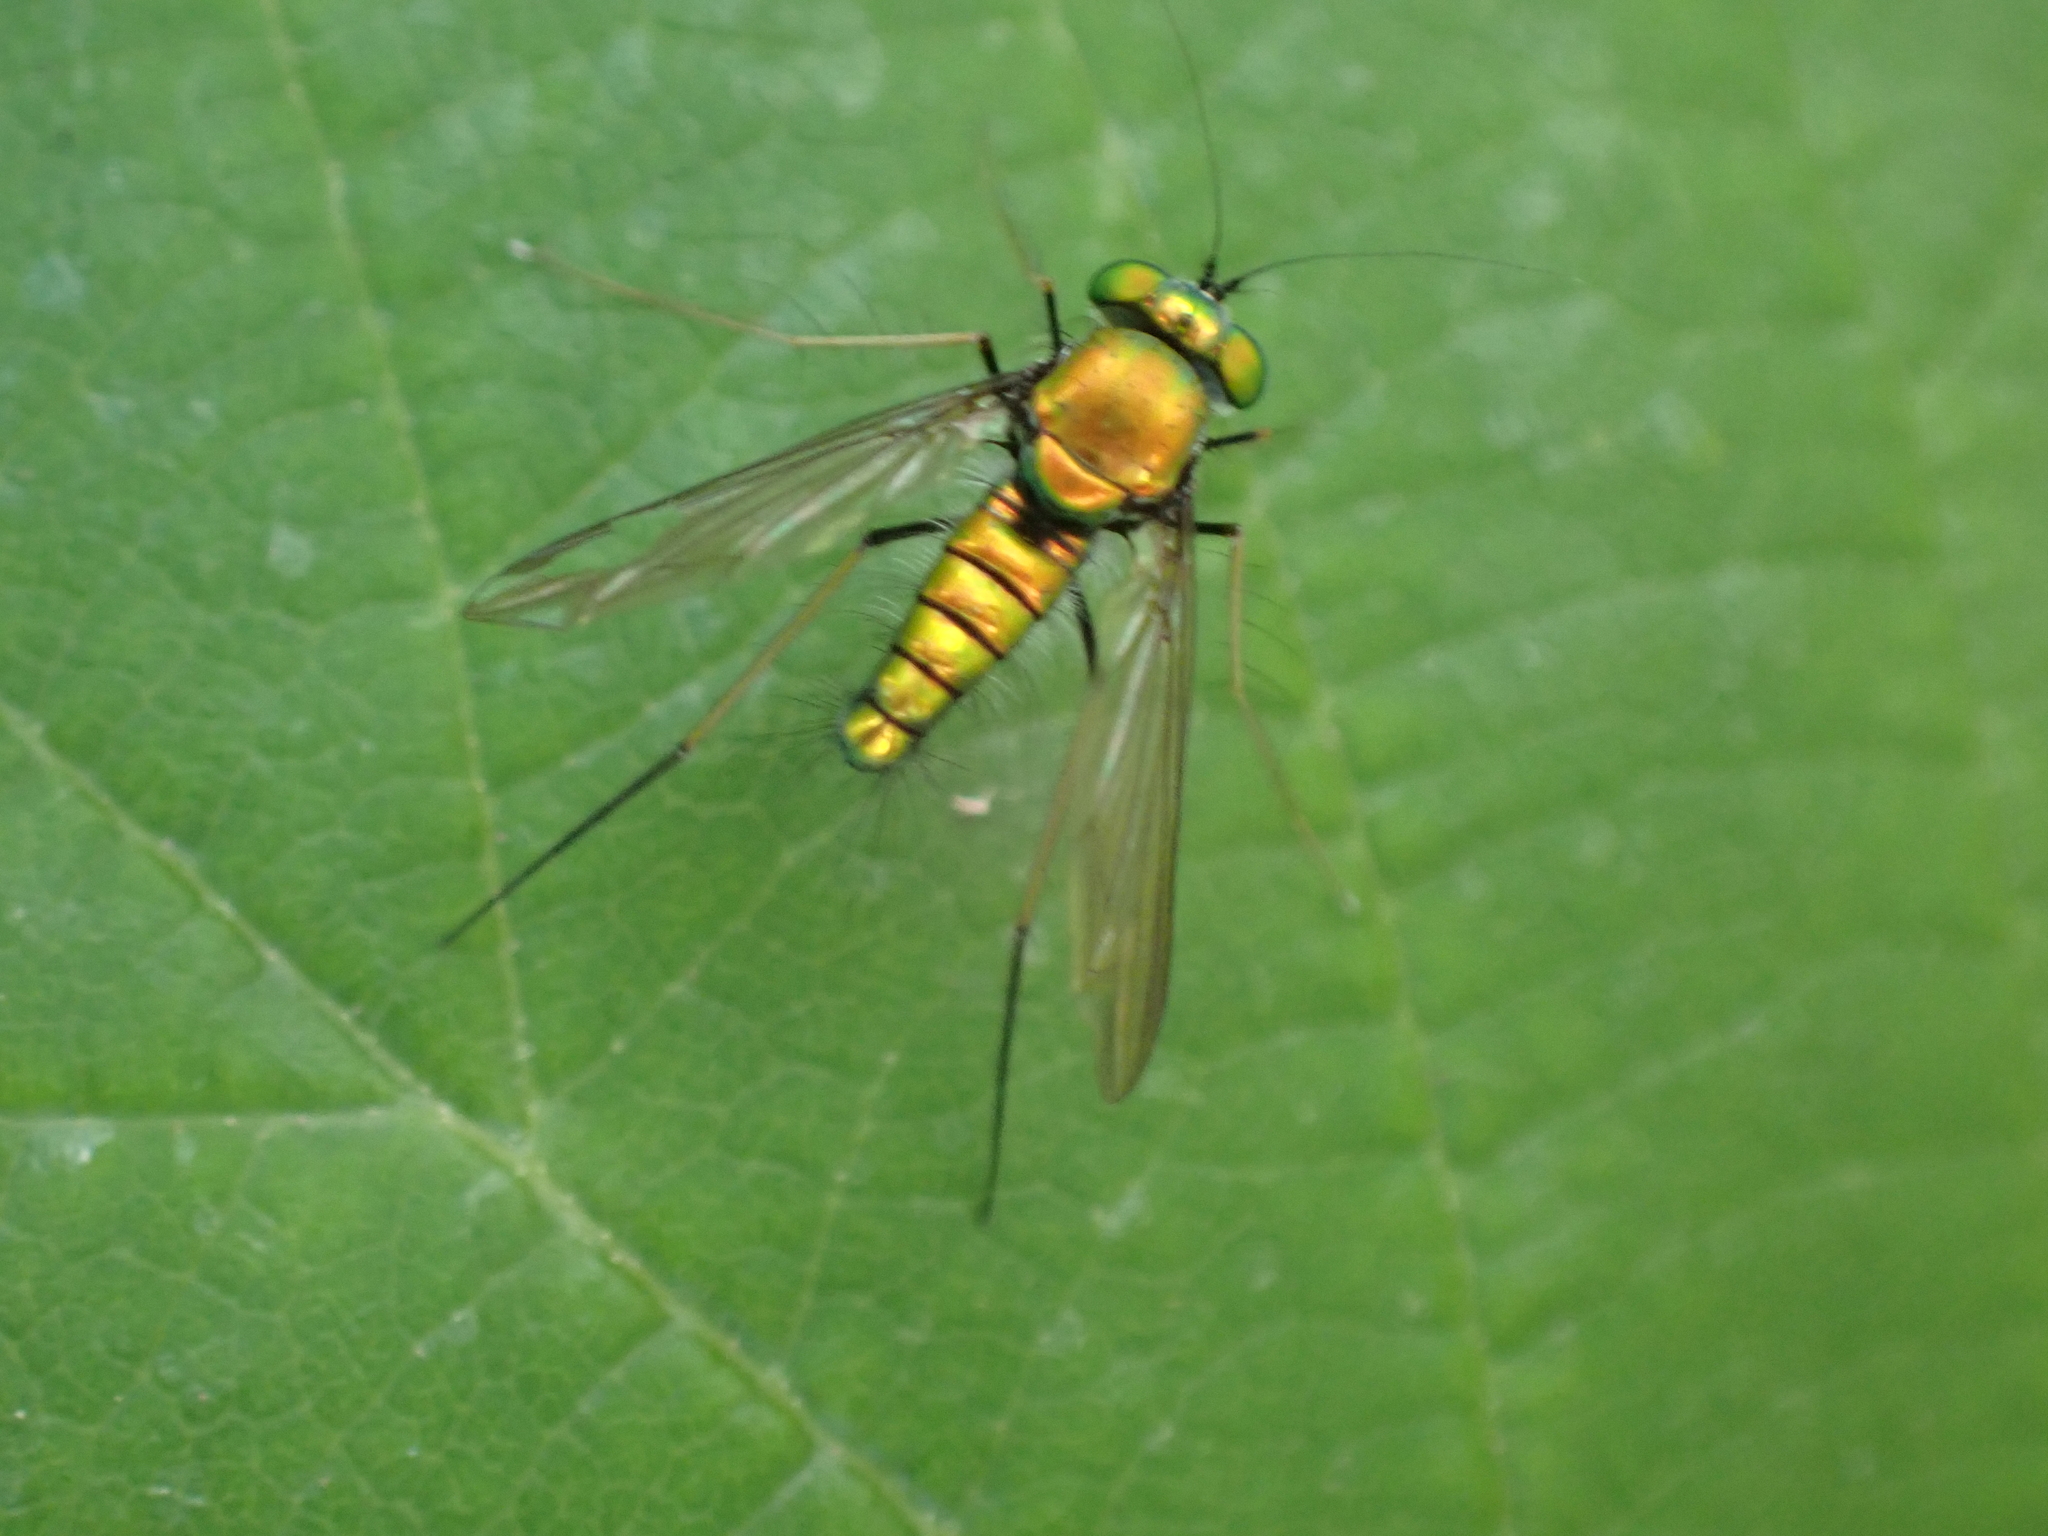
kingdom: Animalia
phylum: Arthropoda
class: Insecta
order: Diptera
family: Dolichopodidae
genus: Condylostylus
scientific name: Condylostylus comatus
